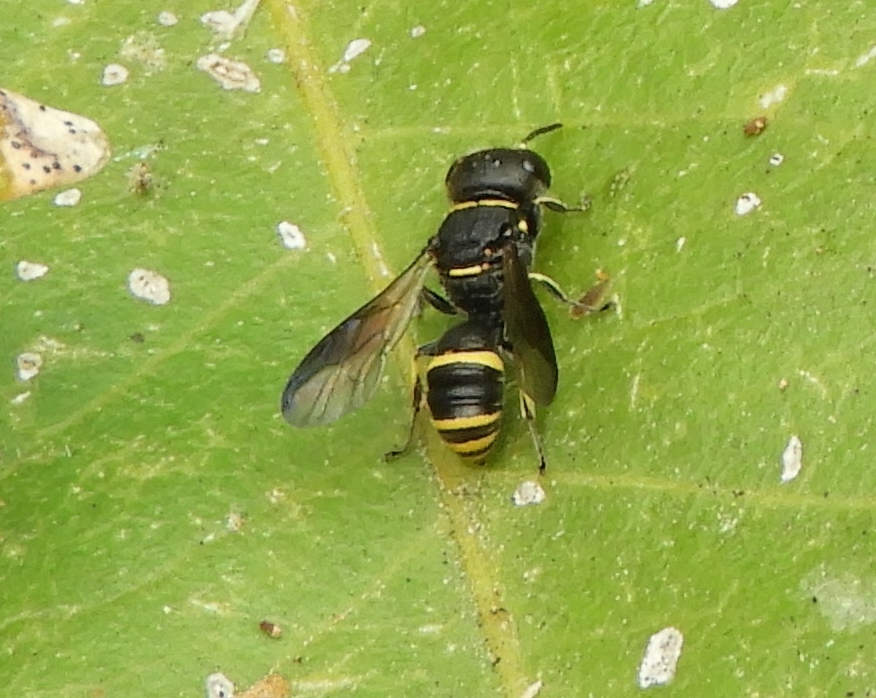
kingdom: Animalia
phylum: Arthropoda
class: Insecta
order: Hymenoptera
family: Crabronidae
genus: Ectemnius
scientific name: Ectemnius scaber
